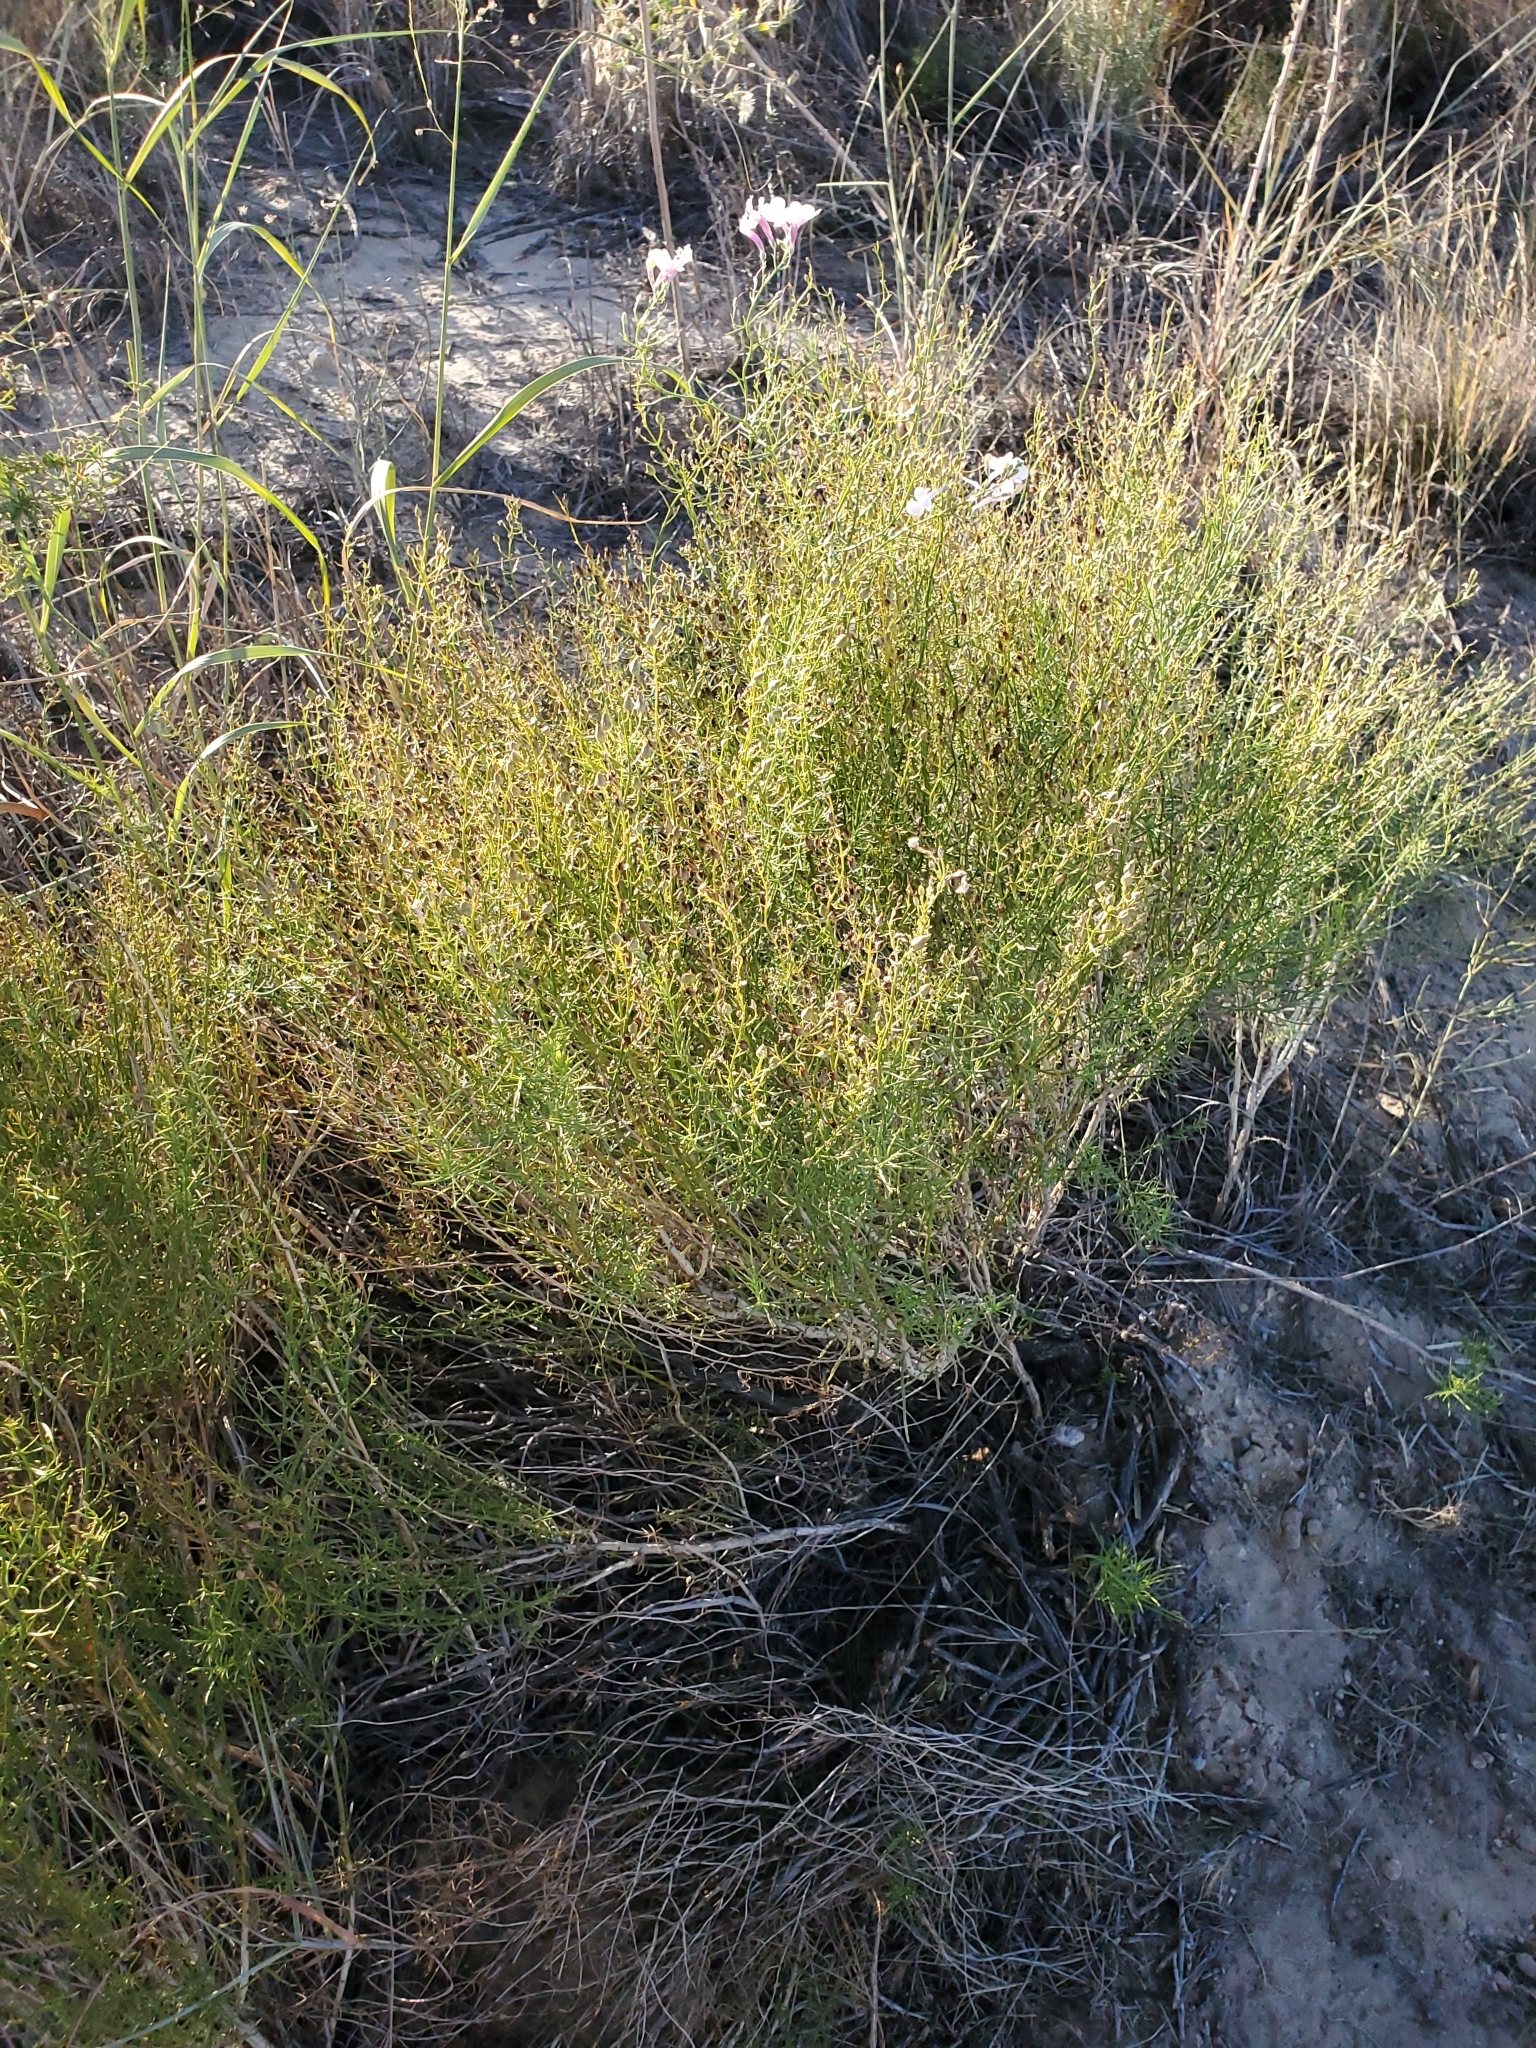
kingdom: Plantae
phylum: Tracheophyta
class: Magnoliopsida
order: Lamiales
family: Plantaginaceae
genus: Penstemon
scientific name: Penstemon ambiguus
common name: Bush penstemon
